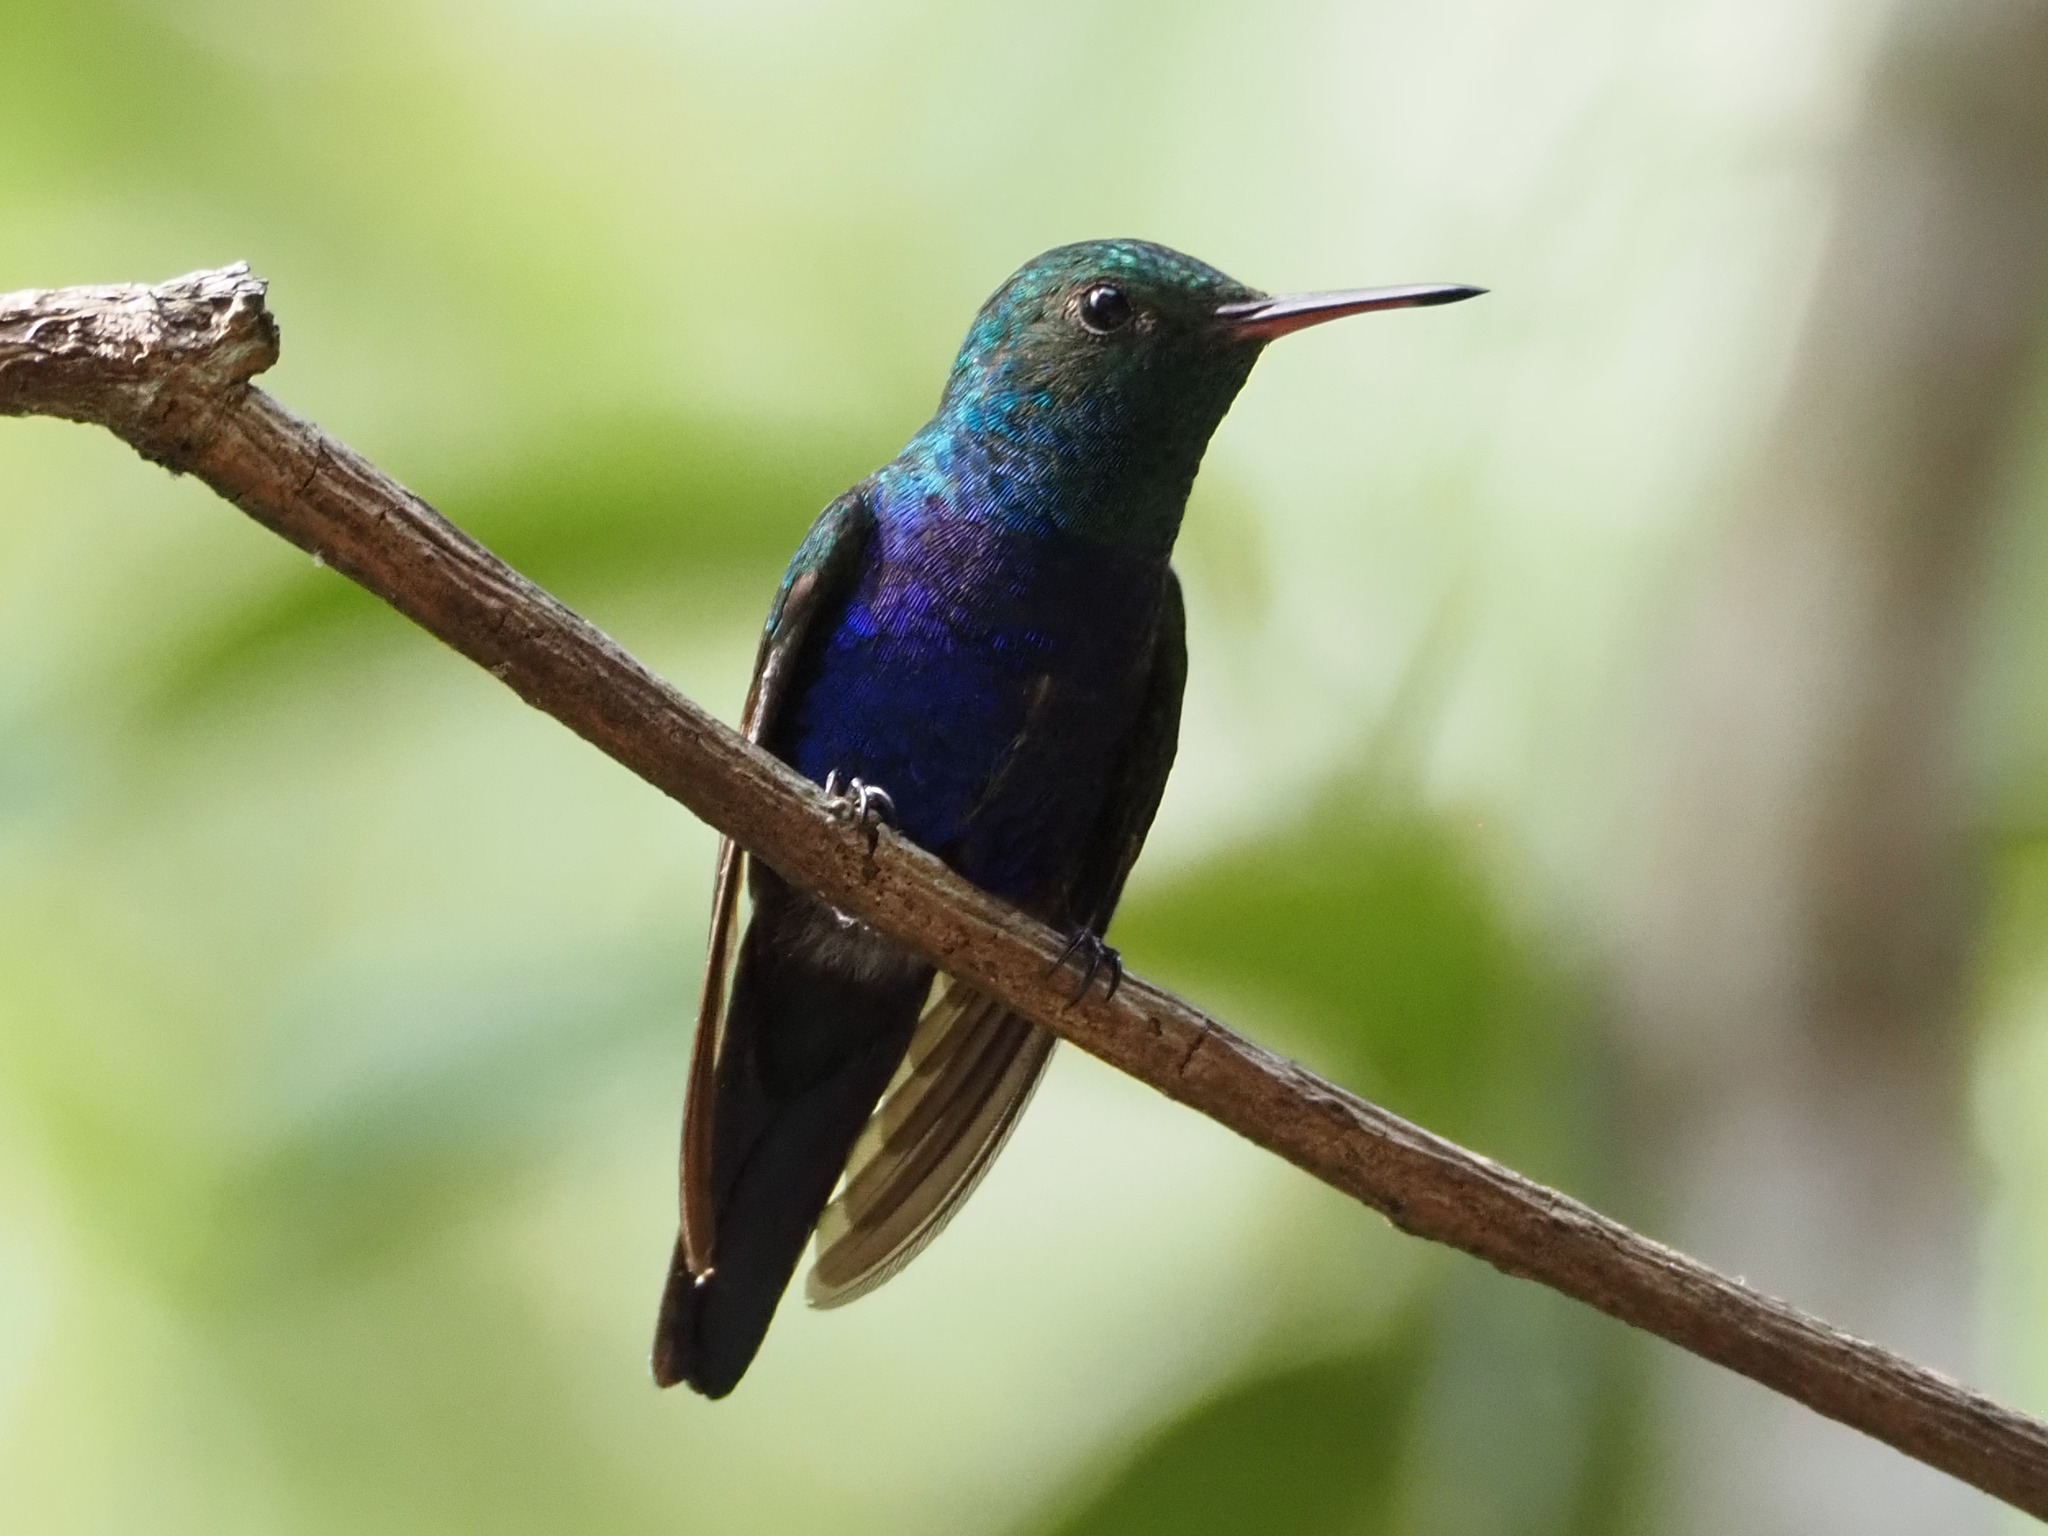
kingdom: Animalia
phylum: Chordata
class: Aves
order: Apodiformes
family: Trochilidae
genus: Chlorestes
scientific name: Chlorestes julie
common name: Violet-bellied hummingbird
